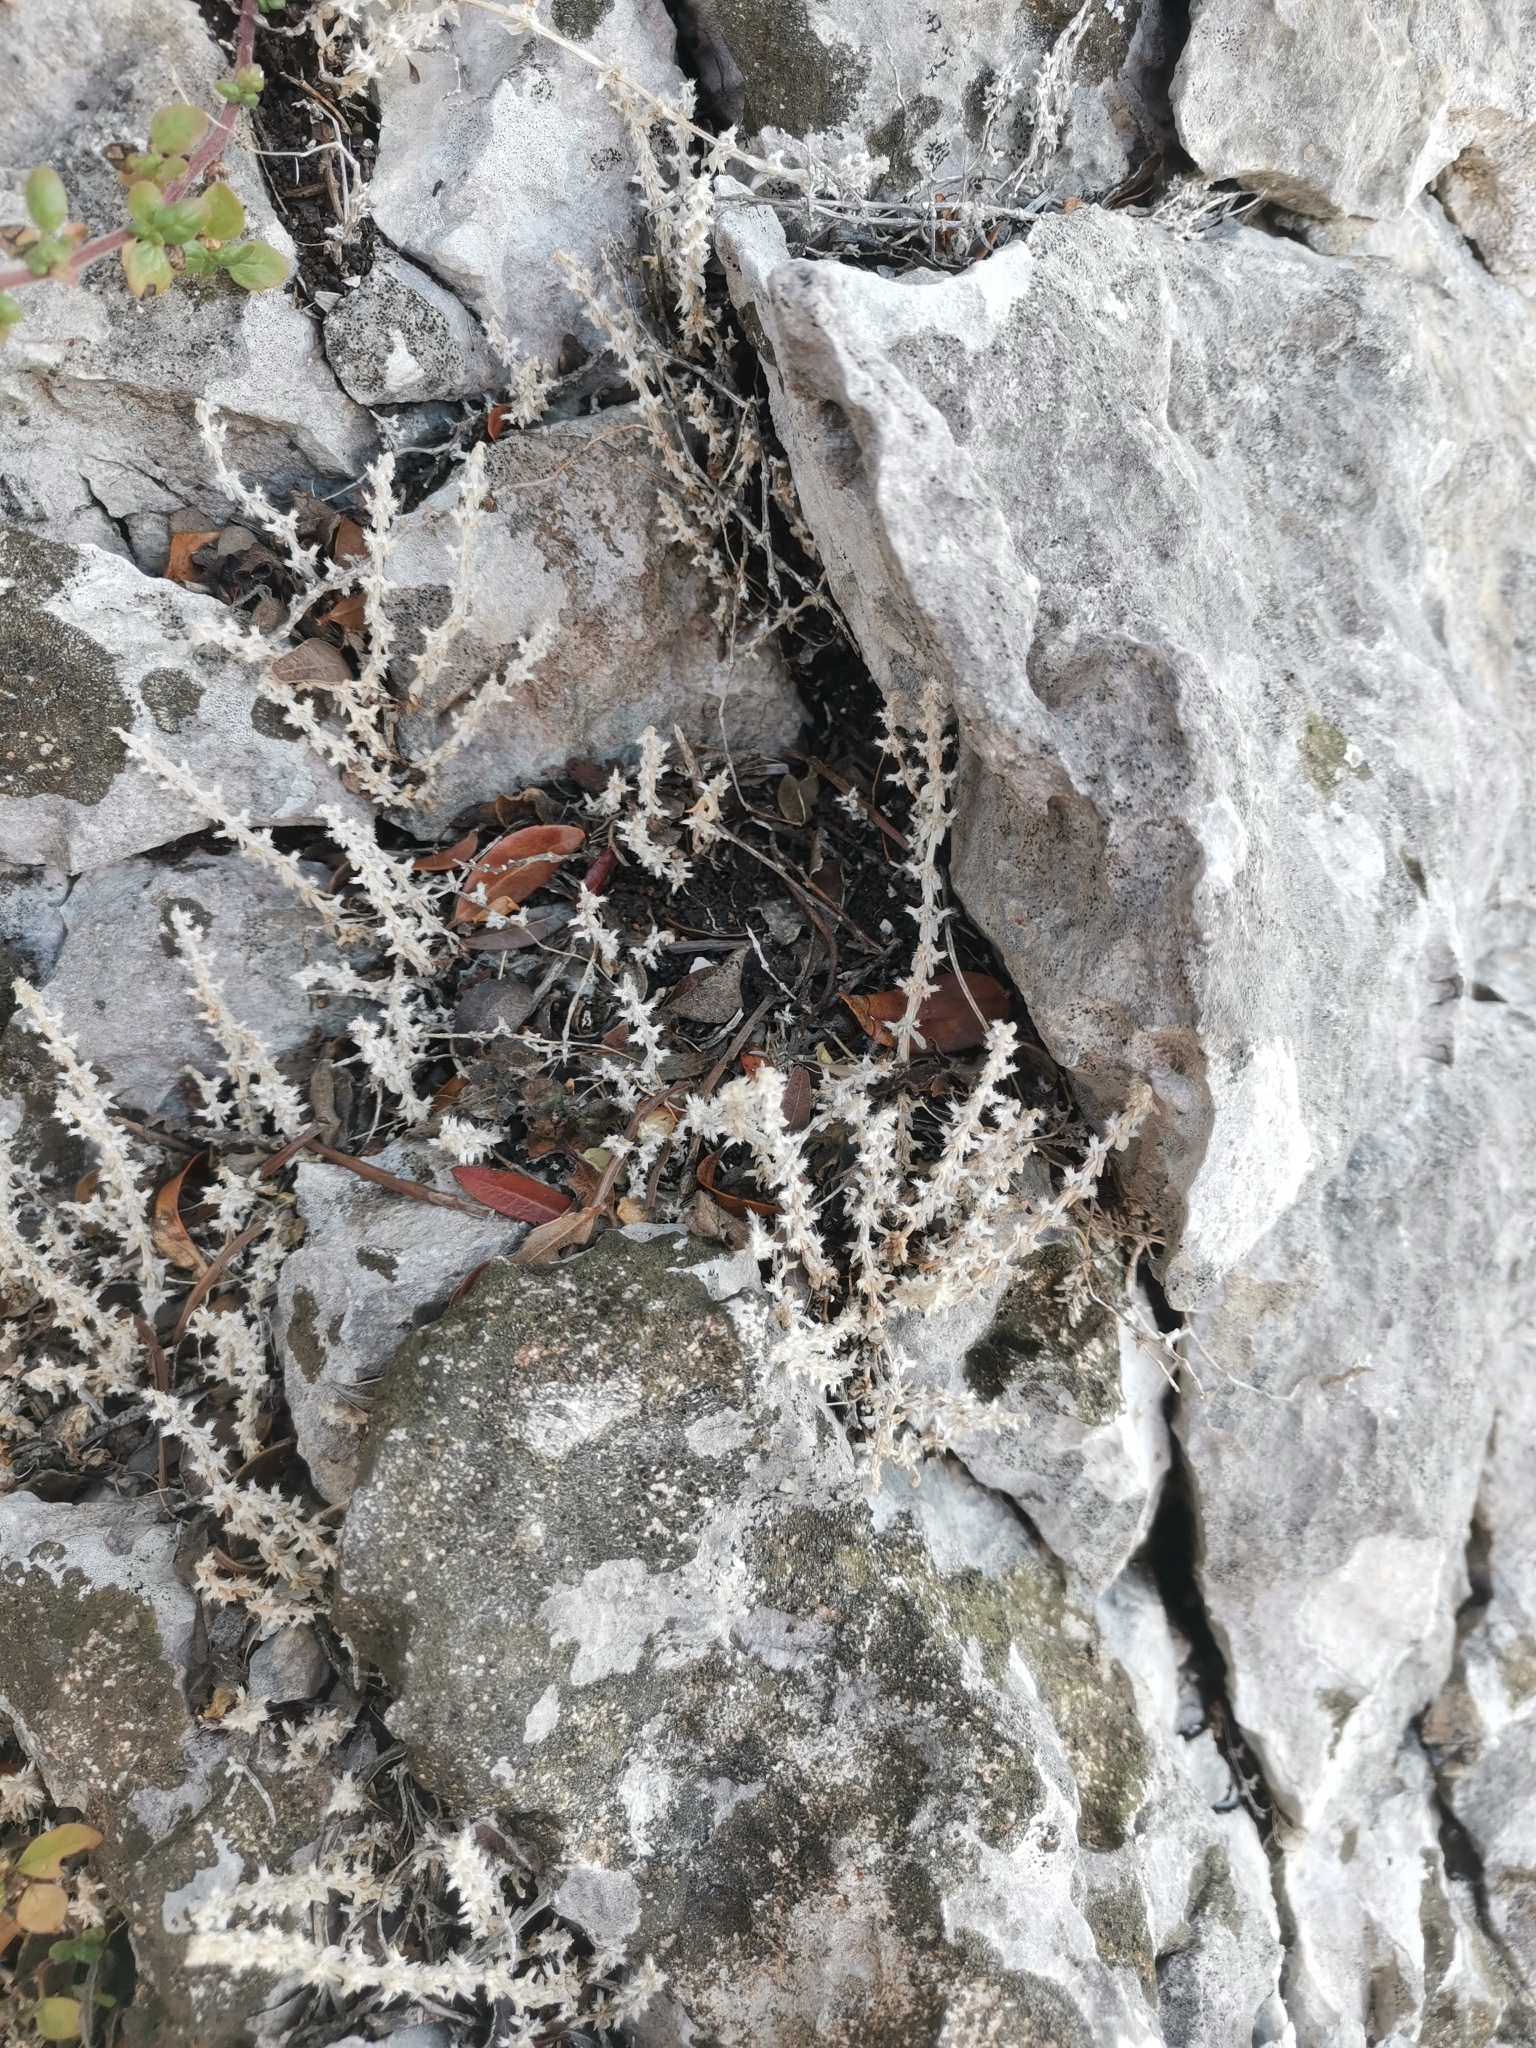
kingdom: Plantae
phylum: Tracheophyta
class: Magnoliopsida
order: Gentianales
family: Rubiaceae
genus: Valantia
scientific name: Valantia muralis
